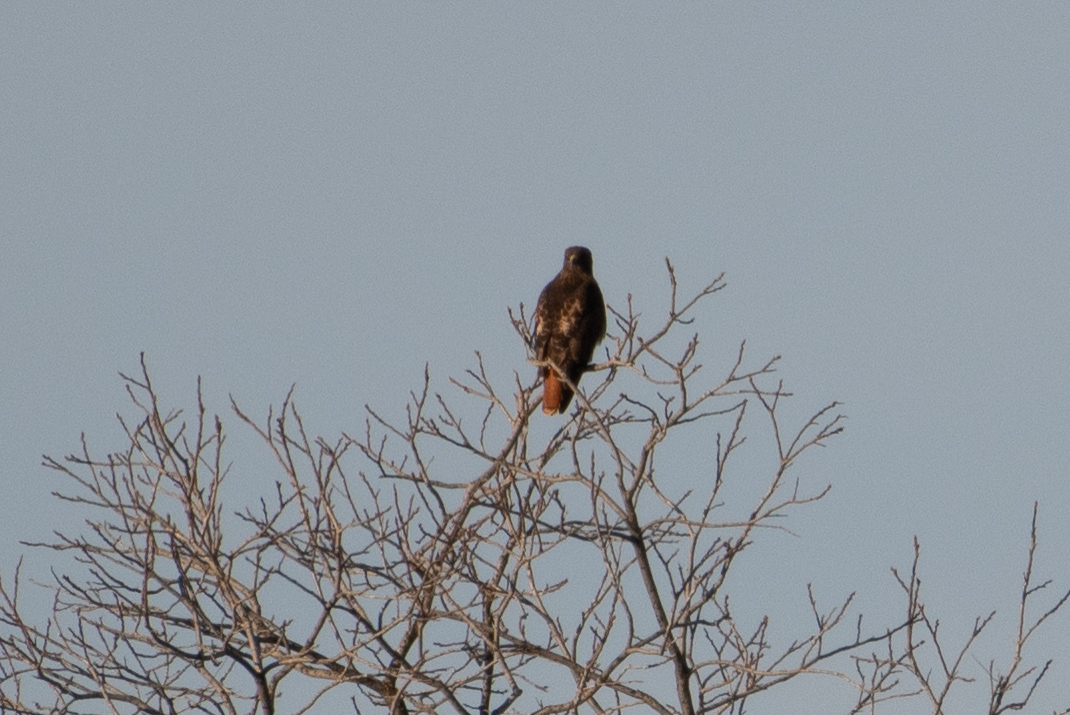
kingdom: Animalia
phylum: Chordata
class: Aves
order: Accipitriformes
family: Accipitridae
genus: Buteo
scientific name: Buteo jamaicensis
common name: Red-tailed hawk
